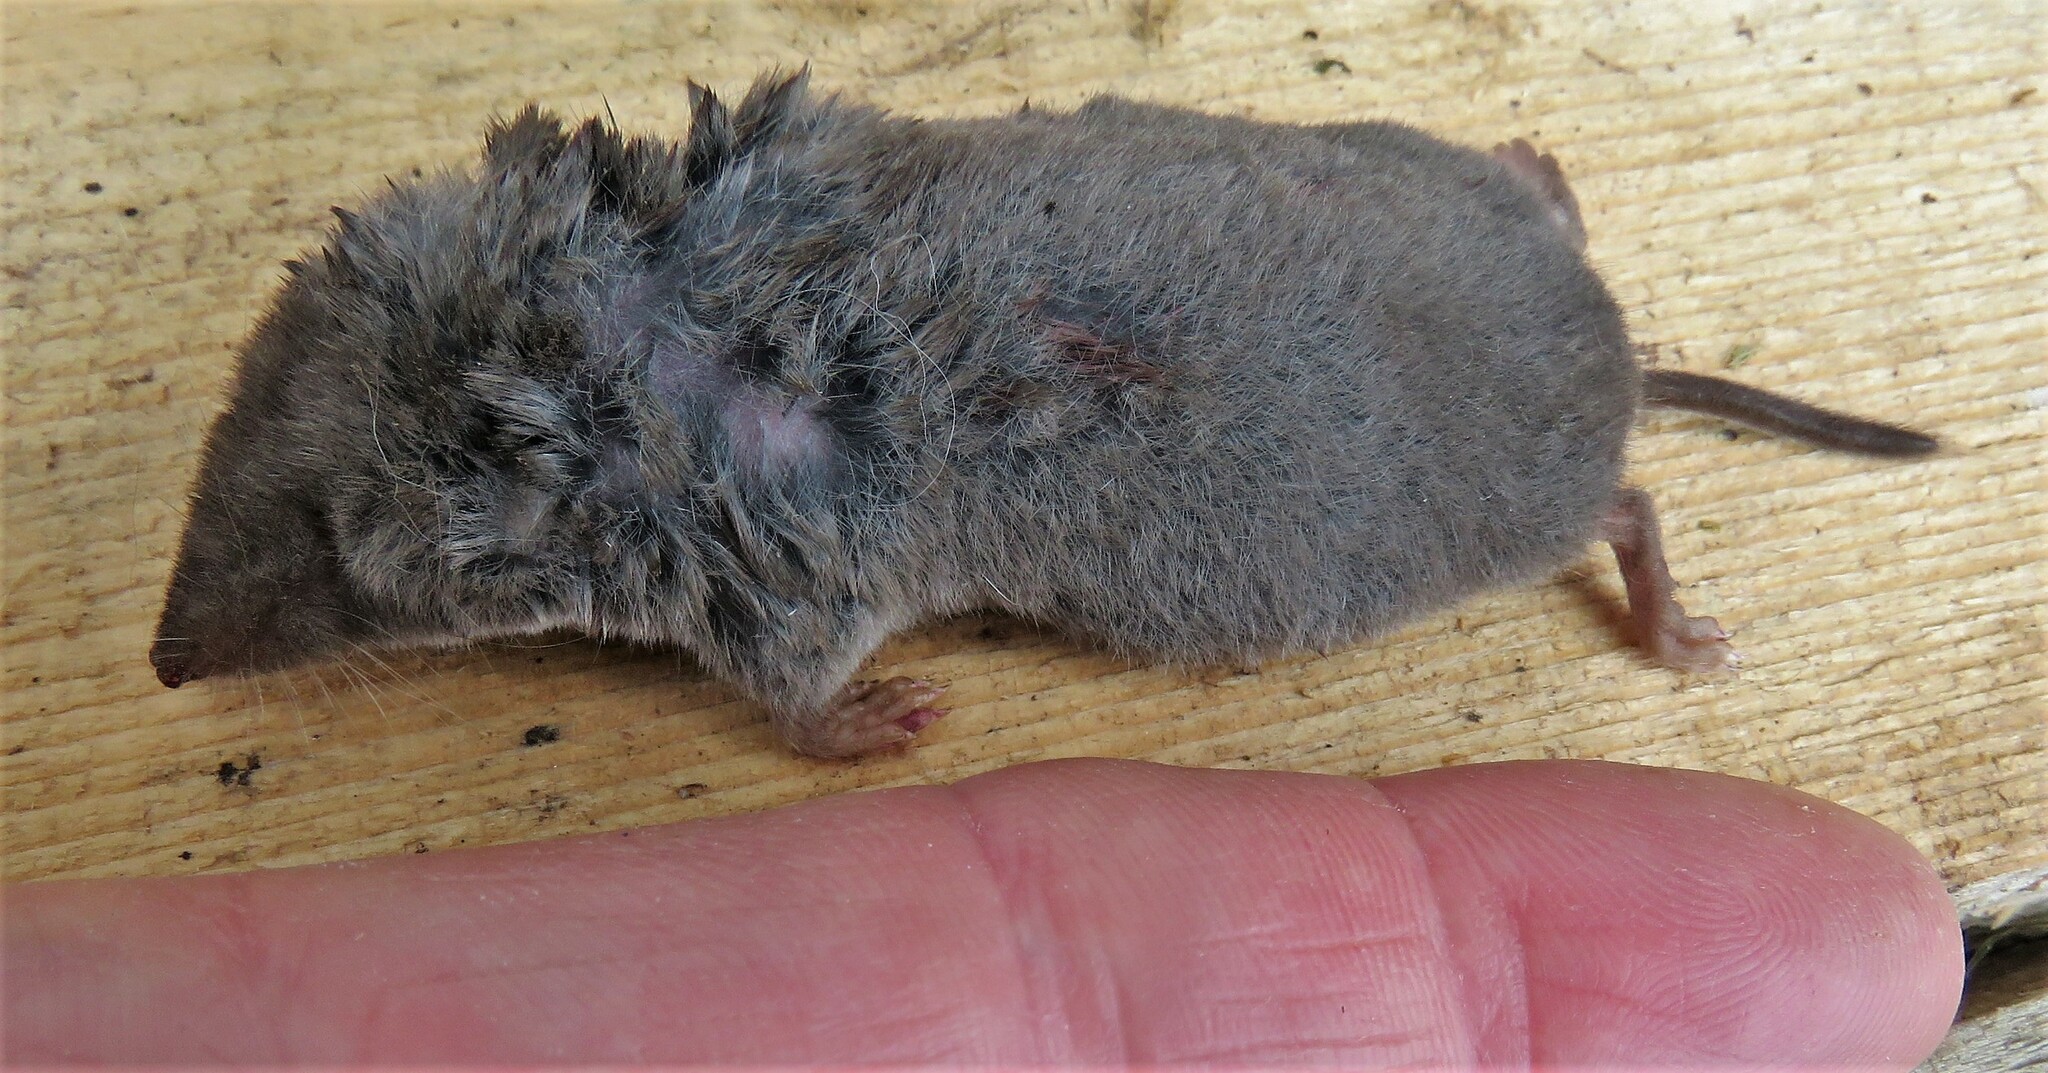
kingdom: Animalia
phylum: Chordata
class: Mammalia
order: Soricomorpha
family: Soricidae
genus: Blarina
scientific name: Blarina brevicauda
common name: Northern short-tailed shrew
